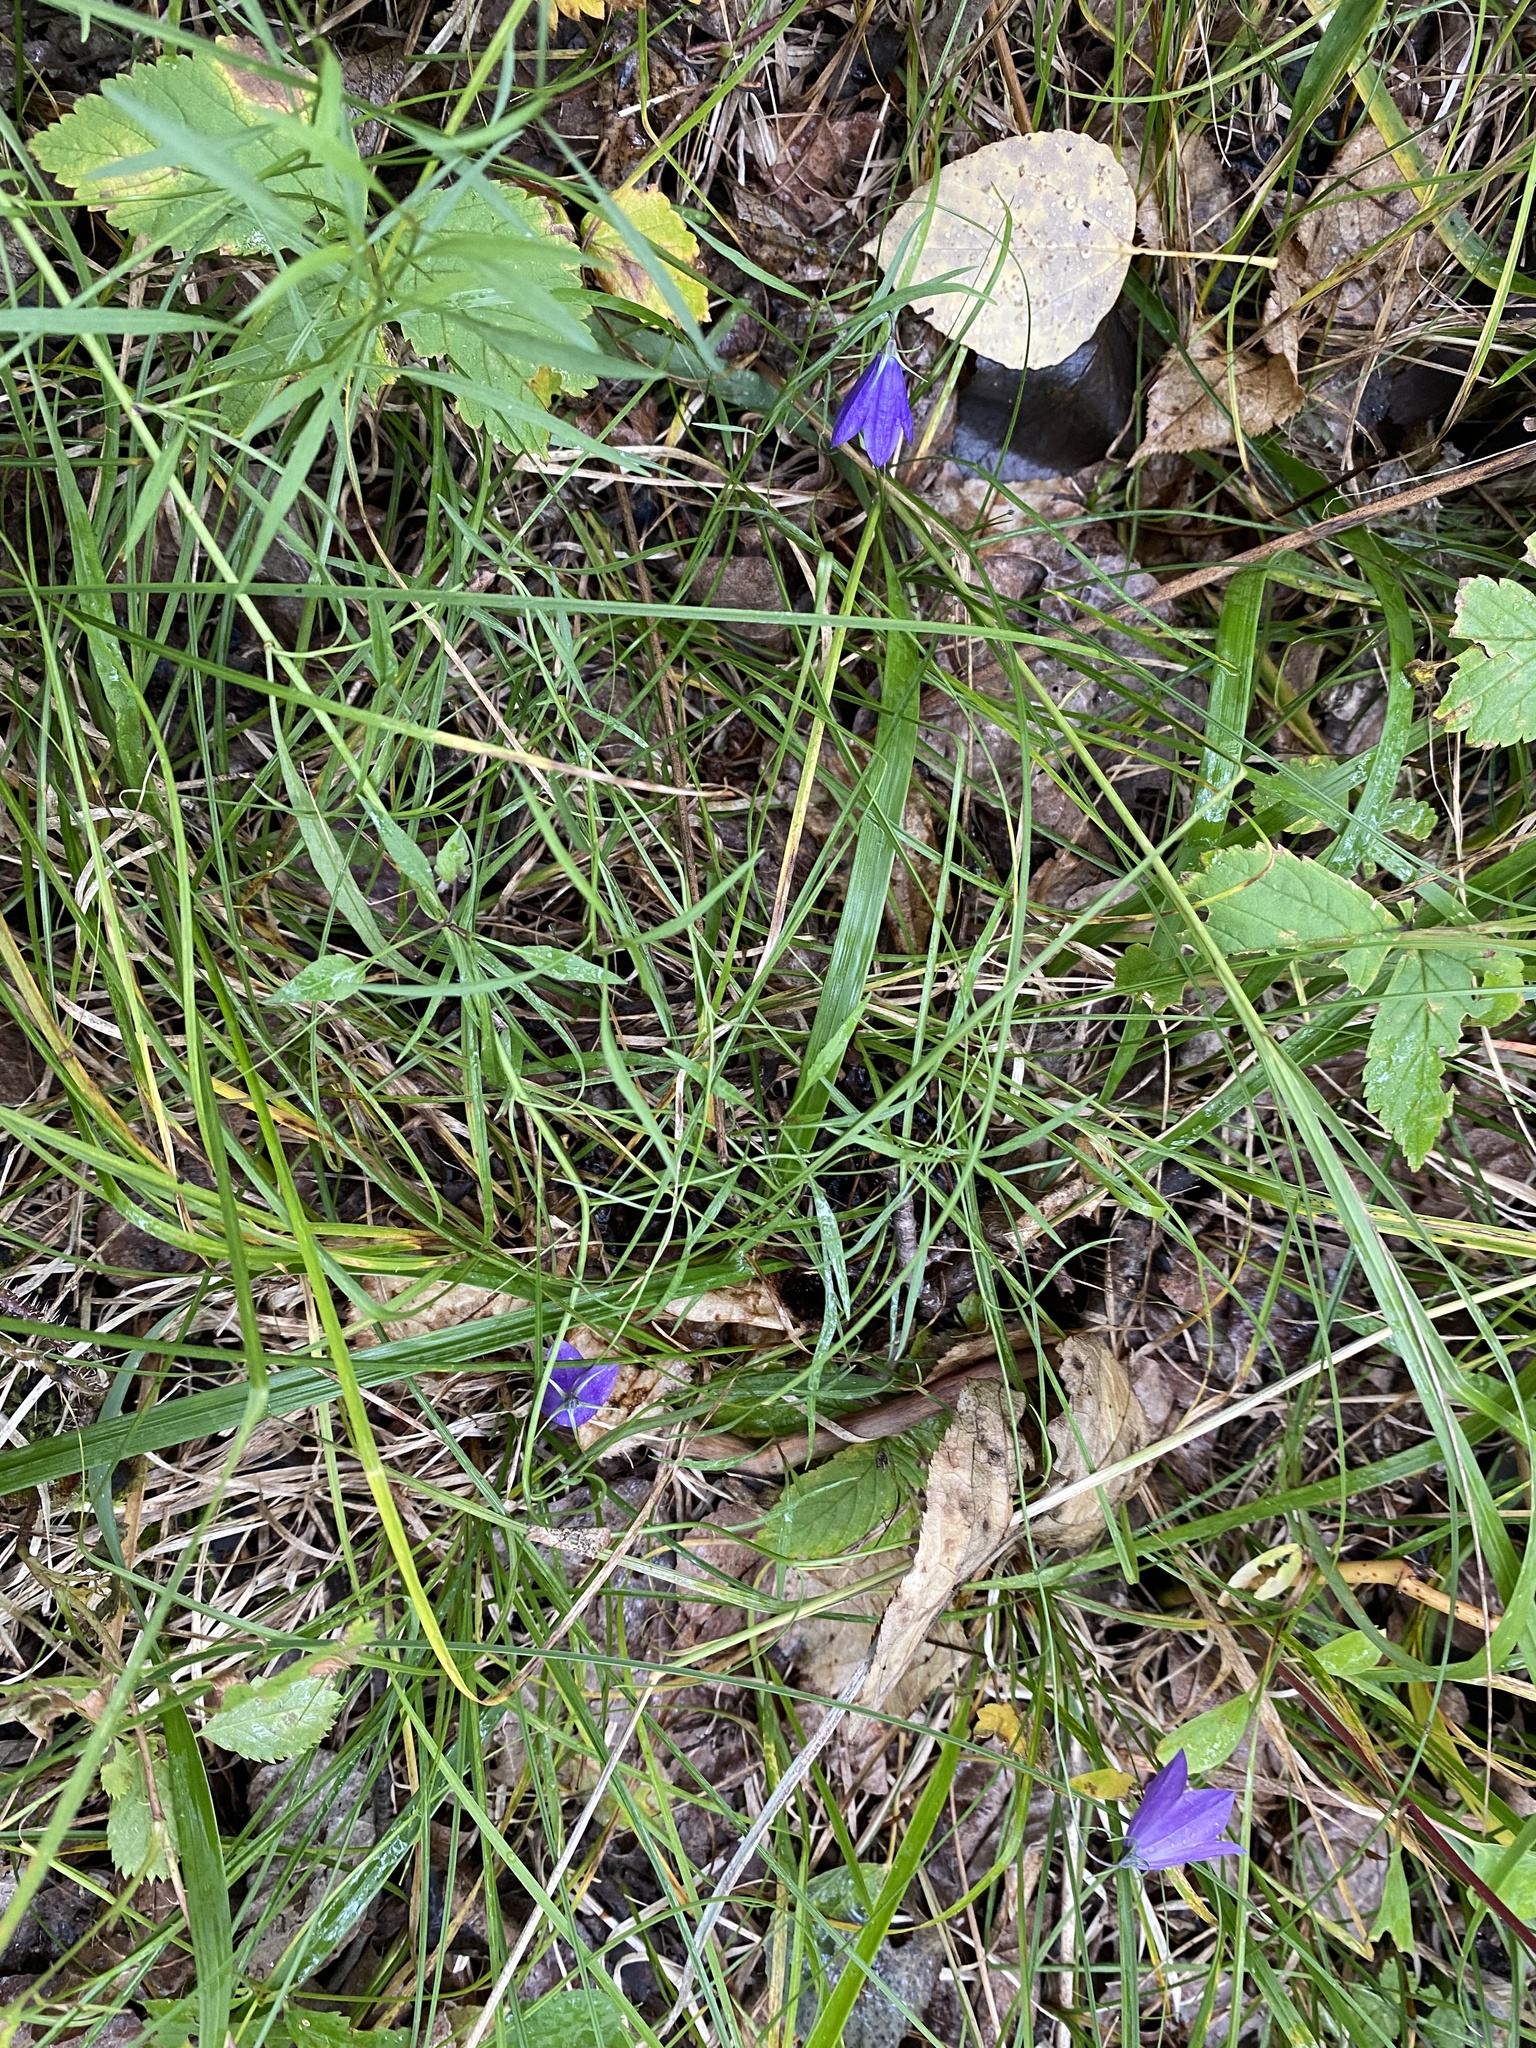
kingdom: Plantae
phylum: Tracheophyta
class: Magnoliopsida
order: Asterales
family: Campanulaceae
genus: Campanula
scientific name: Campanula petiolata
